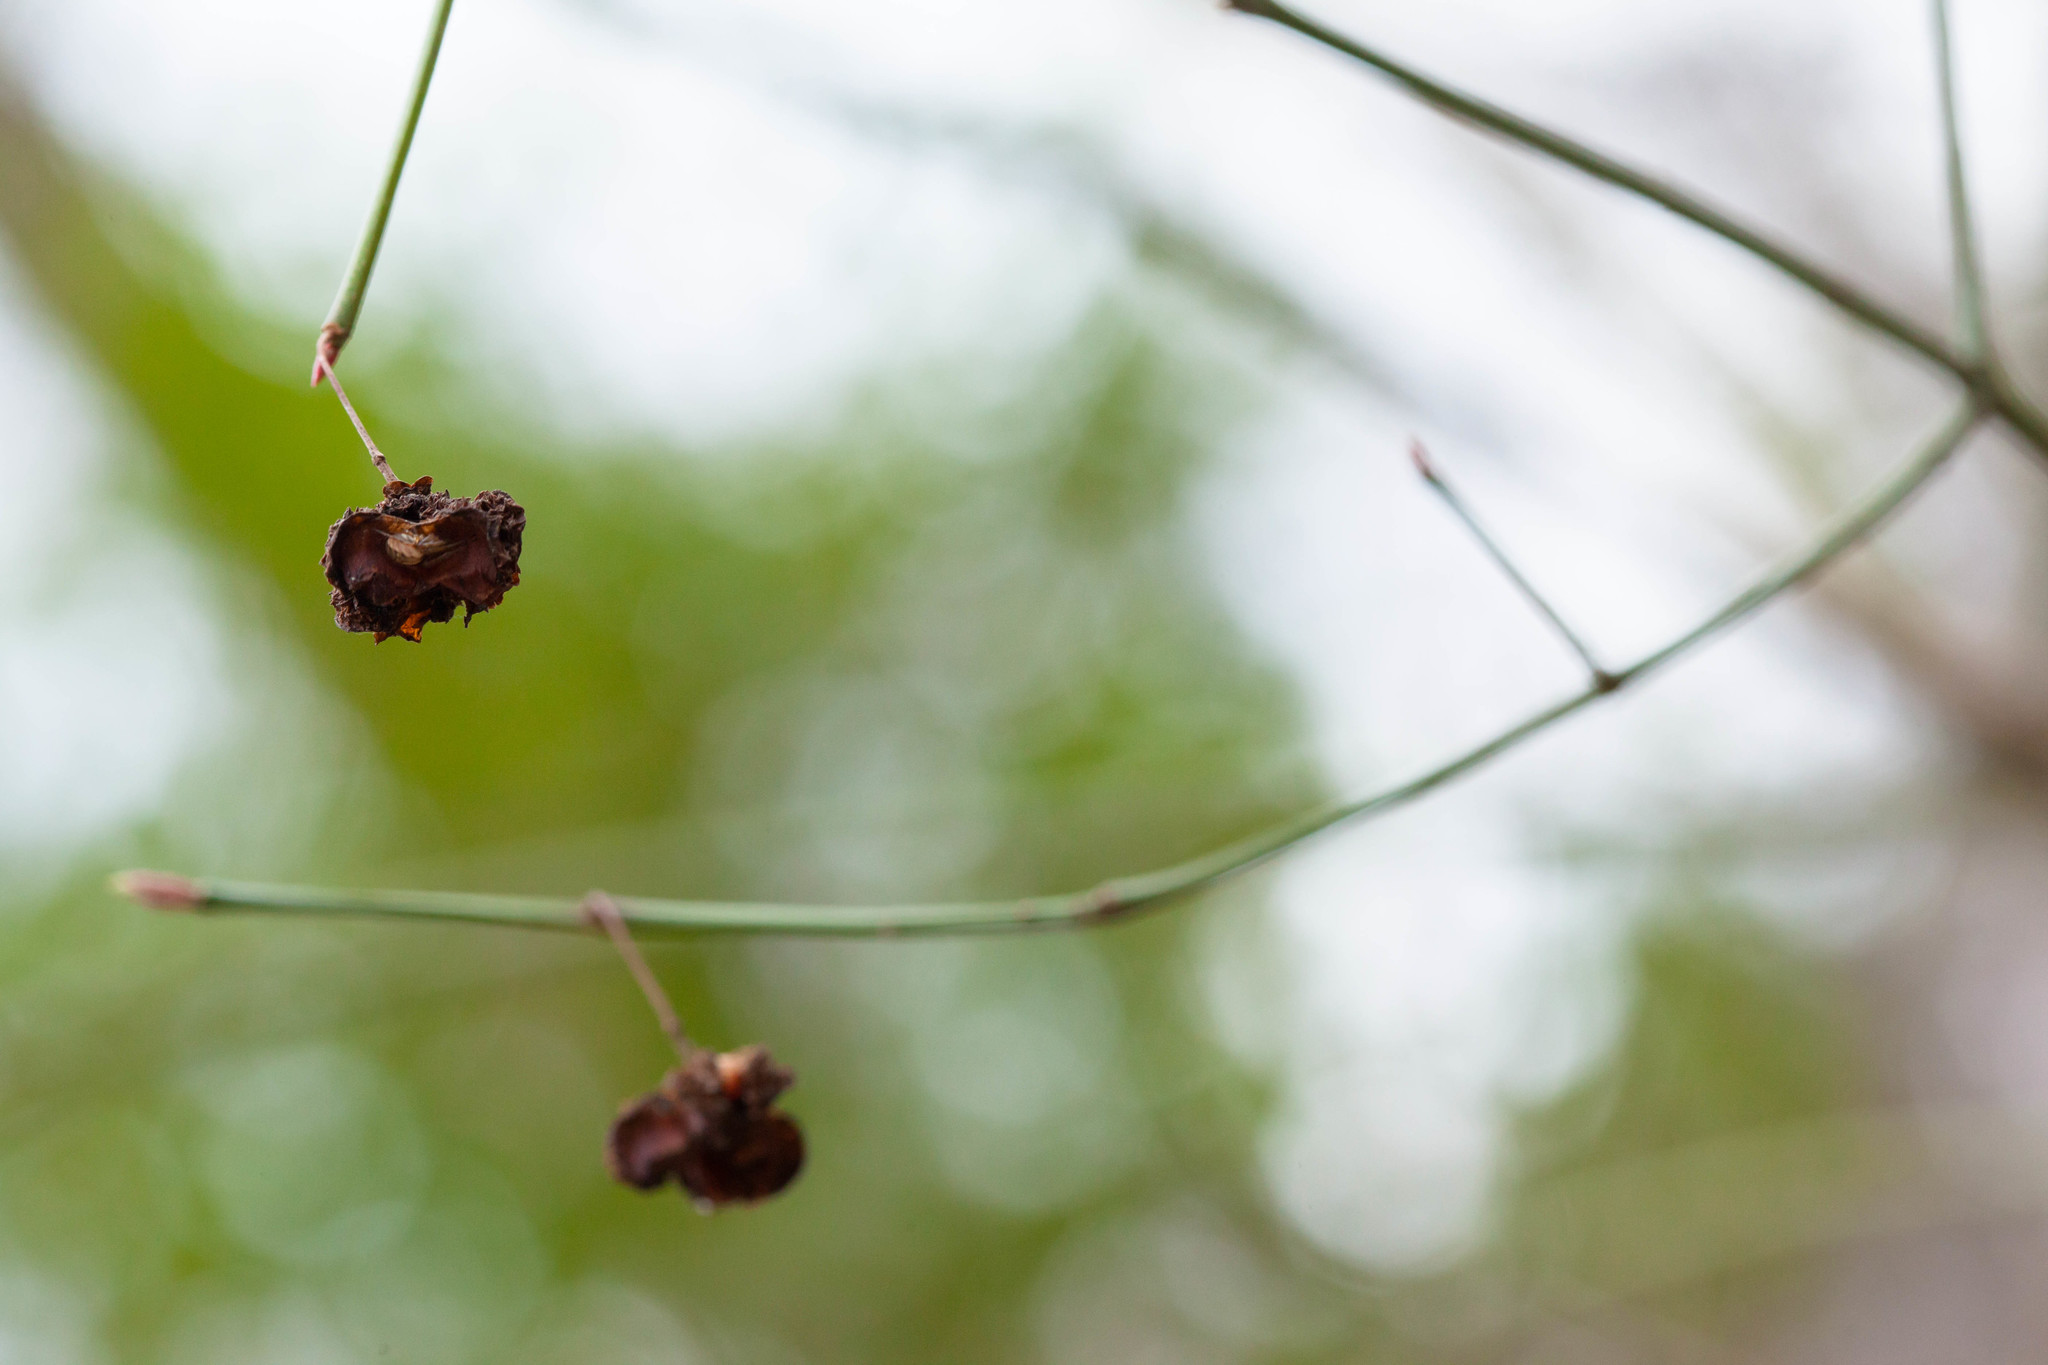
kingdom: Plantae
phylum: Tracheophyta
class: Magnoliopsida
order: Celastrales
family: Celastraceae
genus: Euonymus
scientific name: Euonymus americanus
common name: Bursting-heart
